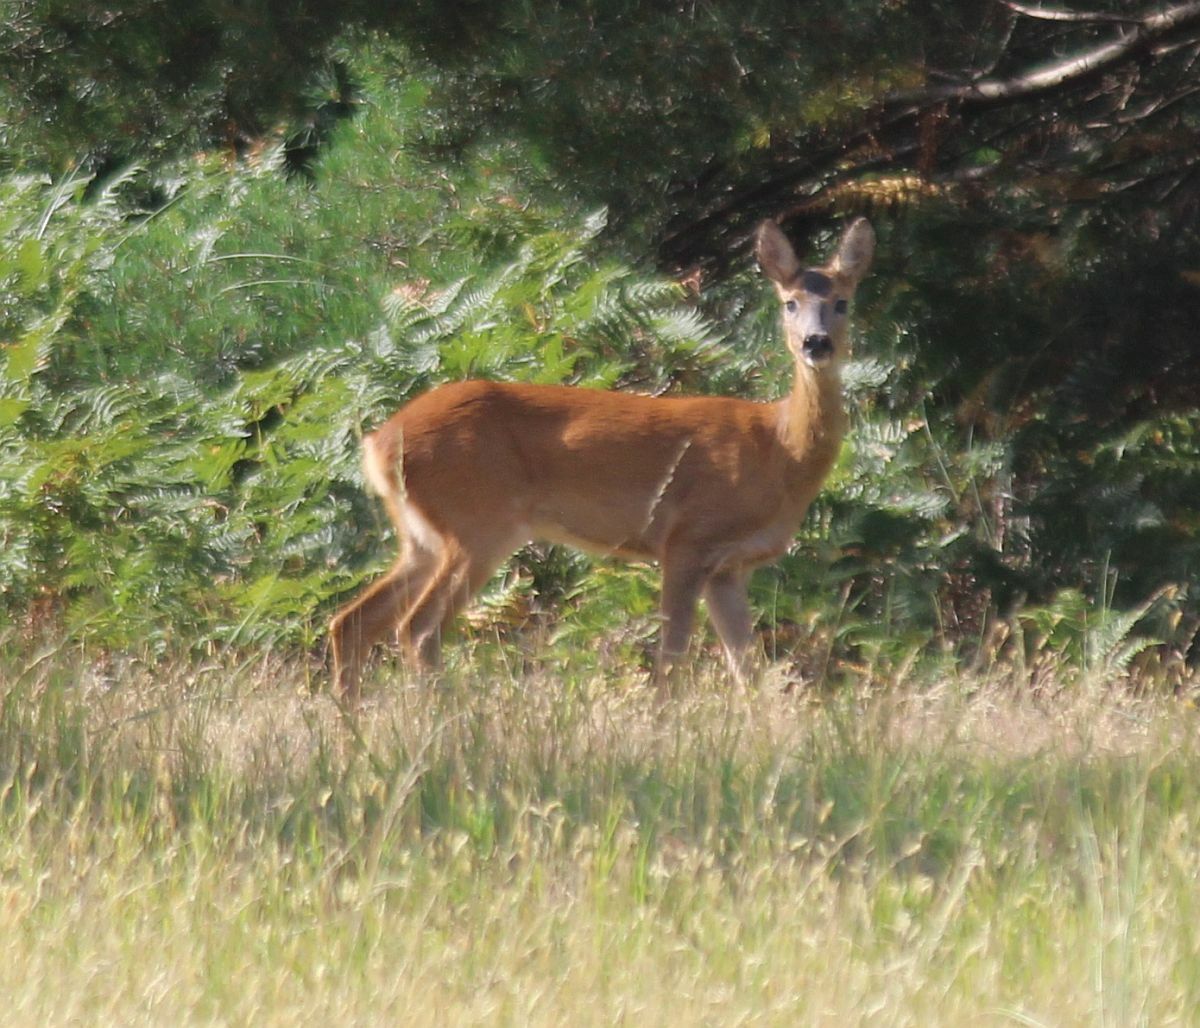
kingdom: Animalia
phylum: Chordata
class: Mammalia
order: Artiodactyla
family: Cervidae
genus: Capreolus
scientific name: Capreolus capreolus
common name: Western roe deer
